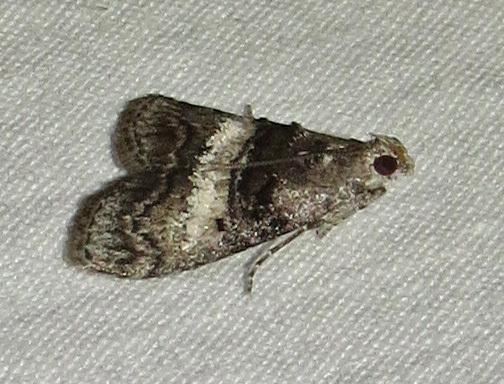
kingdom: Animalia
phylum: Arthropoda
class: Insecta
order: Lepidoptera
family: Pyralidae
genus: Pococera
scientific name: Pococera asperatella
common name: Maple webworm moth
